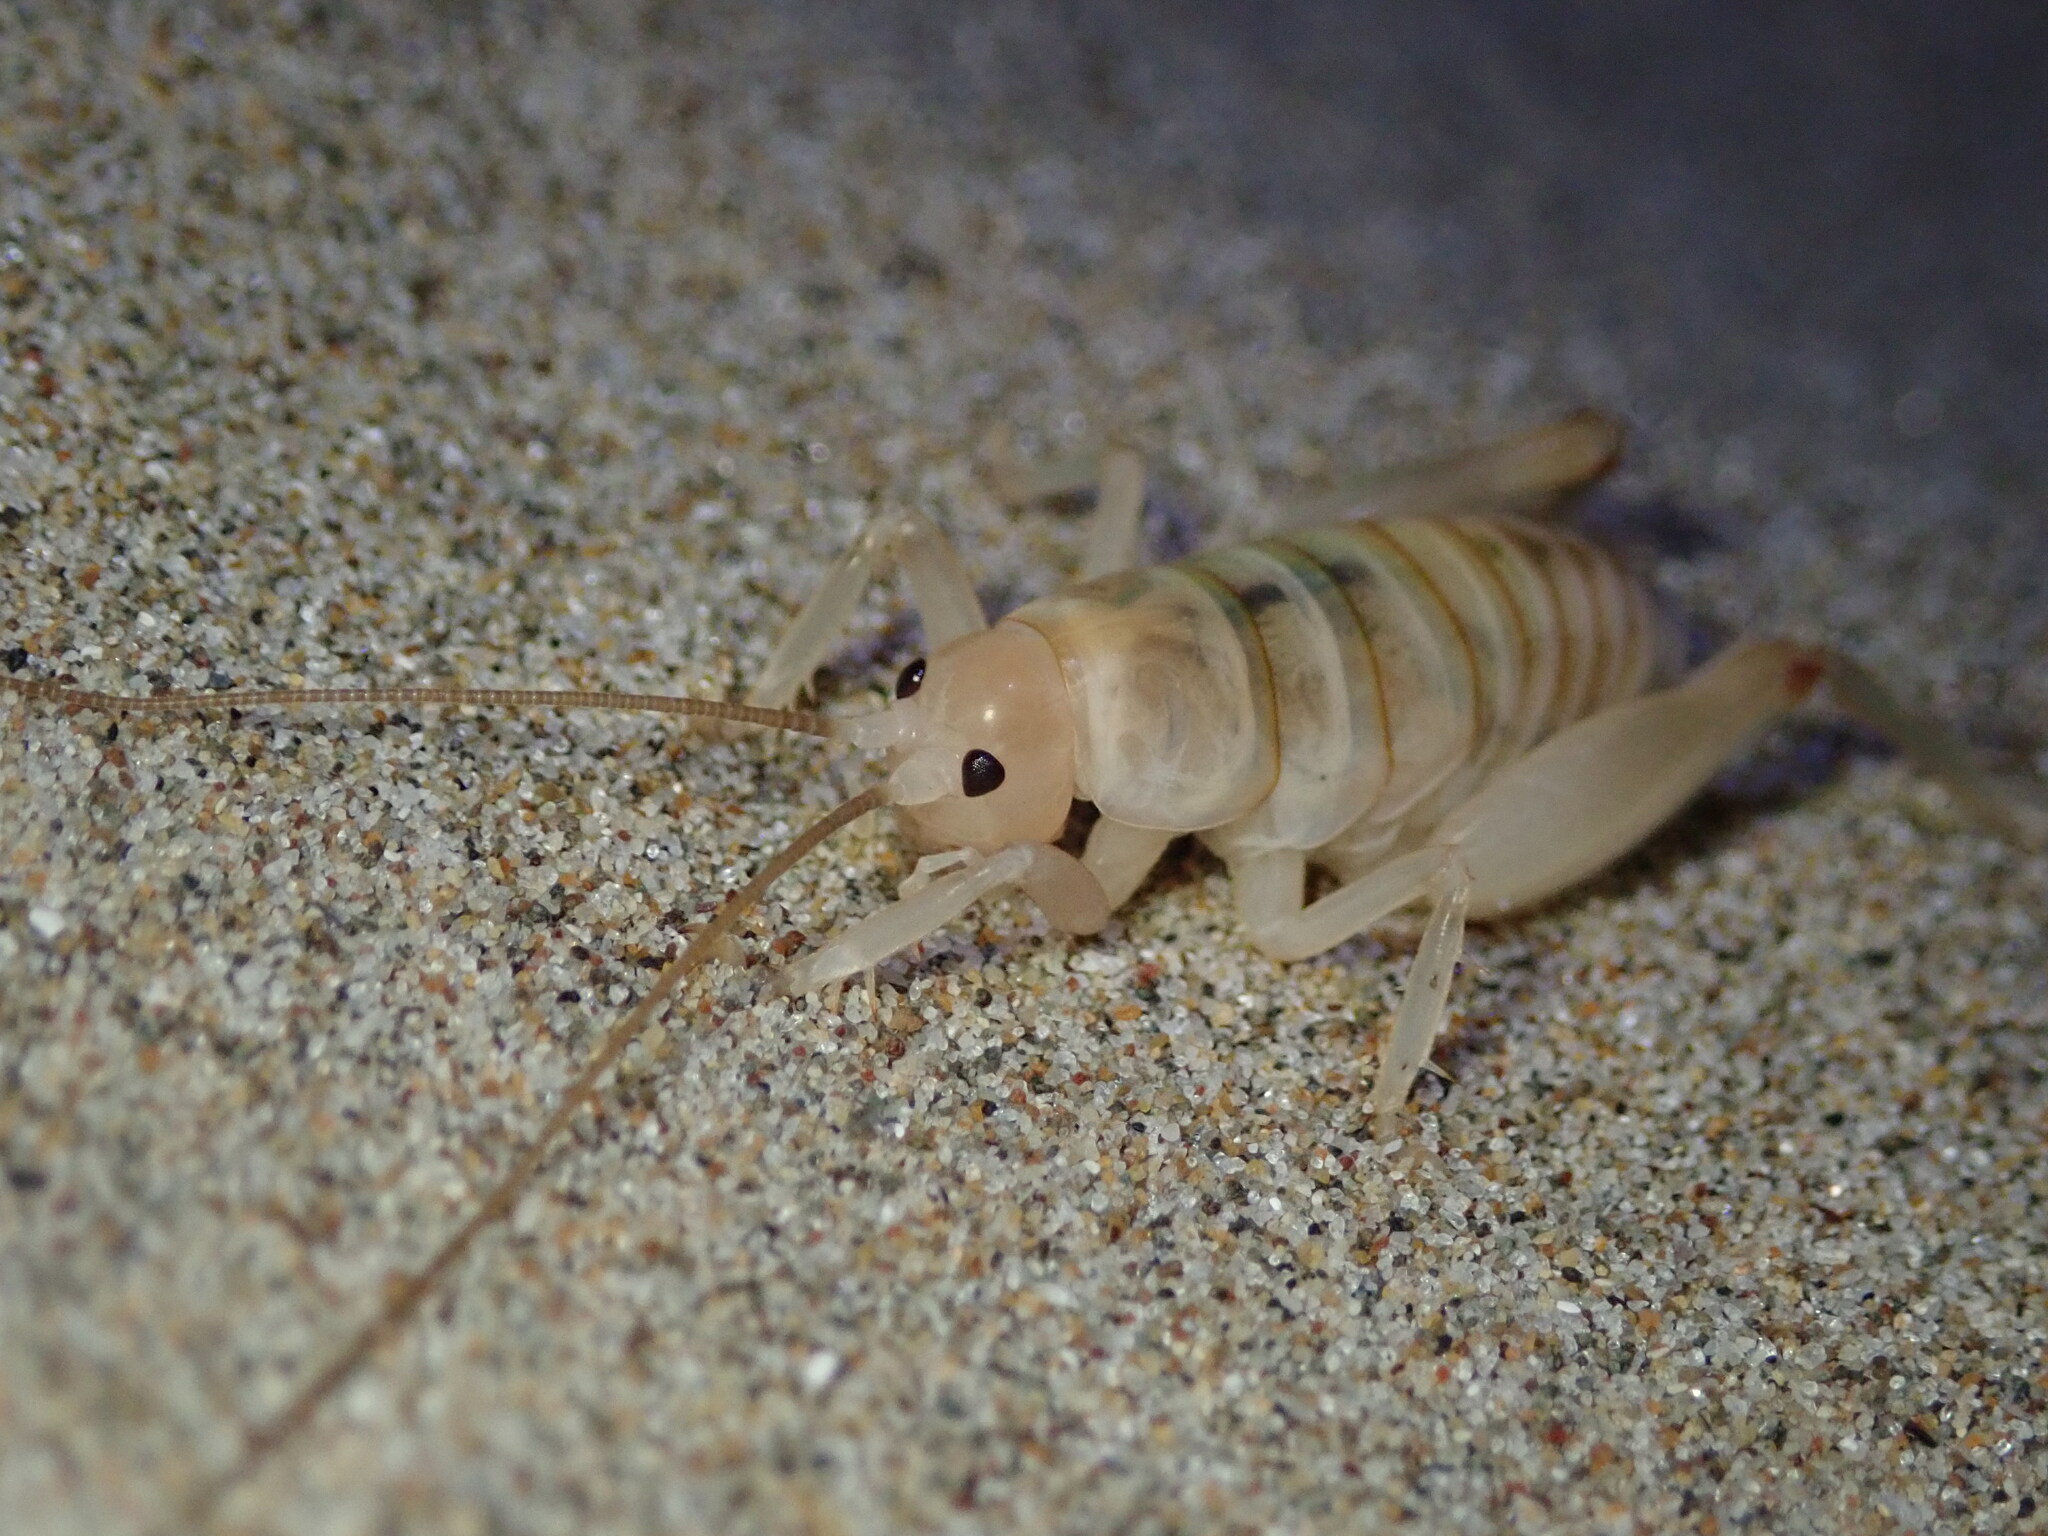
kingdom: Animalia
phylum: Arthropoda
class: Insecta
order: Orthoptera
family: Rhaphidophoridae
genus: Rhachocnemis
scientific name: Rhachocnemis validus
